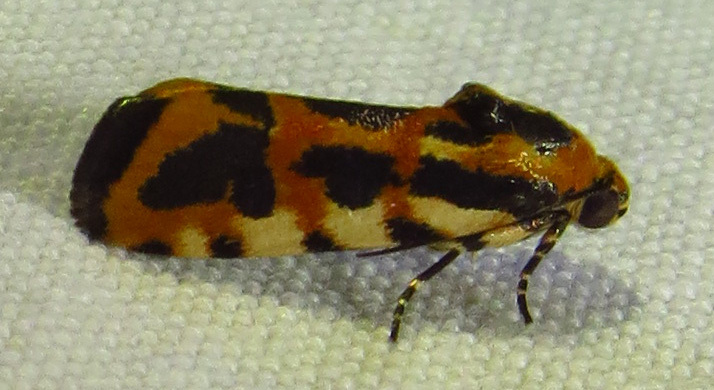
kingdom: Animalia
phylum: Arthropoda
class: Insecta
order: Lepidoptera
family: Noctuidae
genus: Acontia
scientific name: Acontia leo
